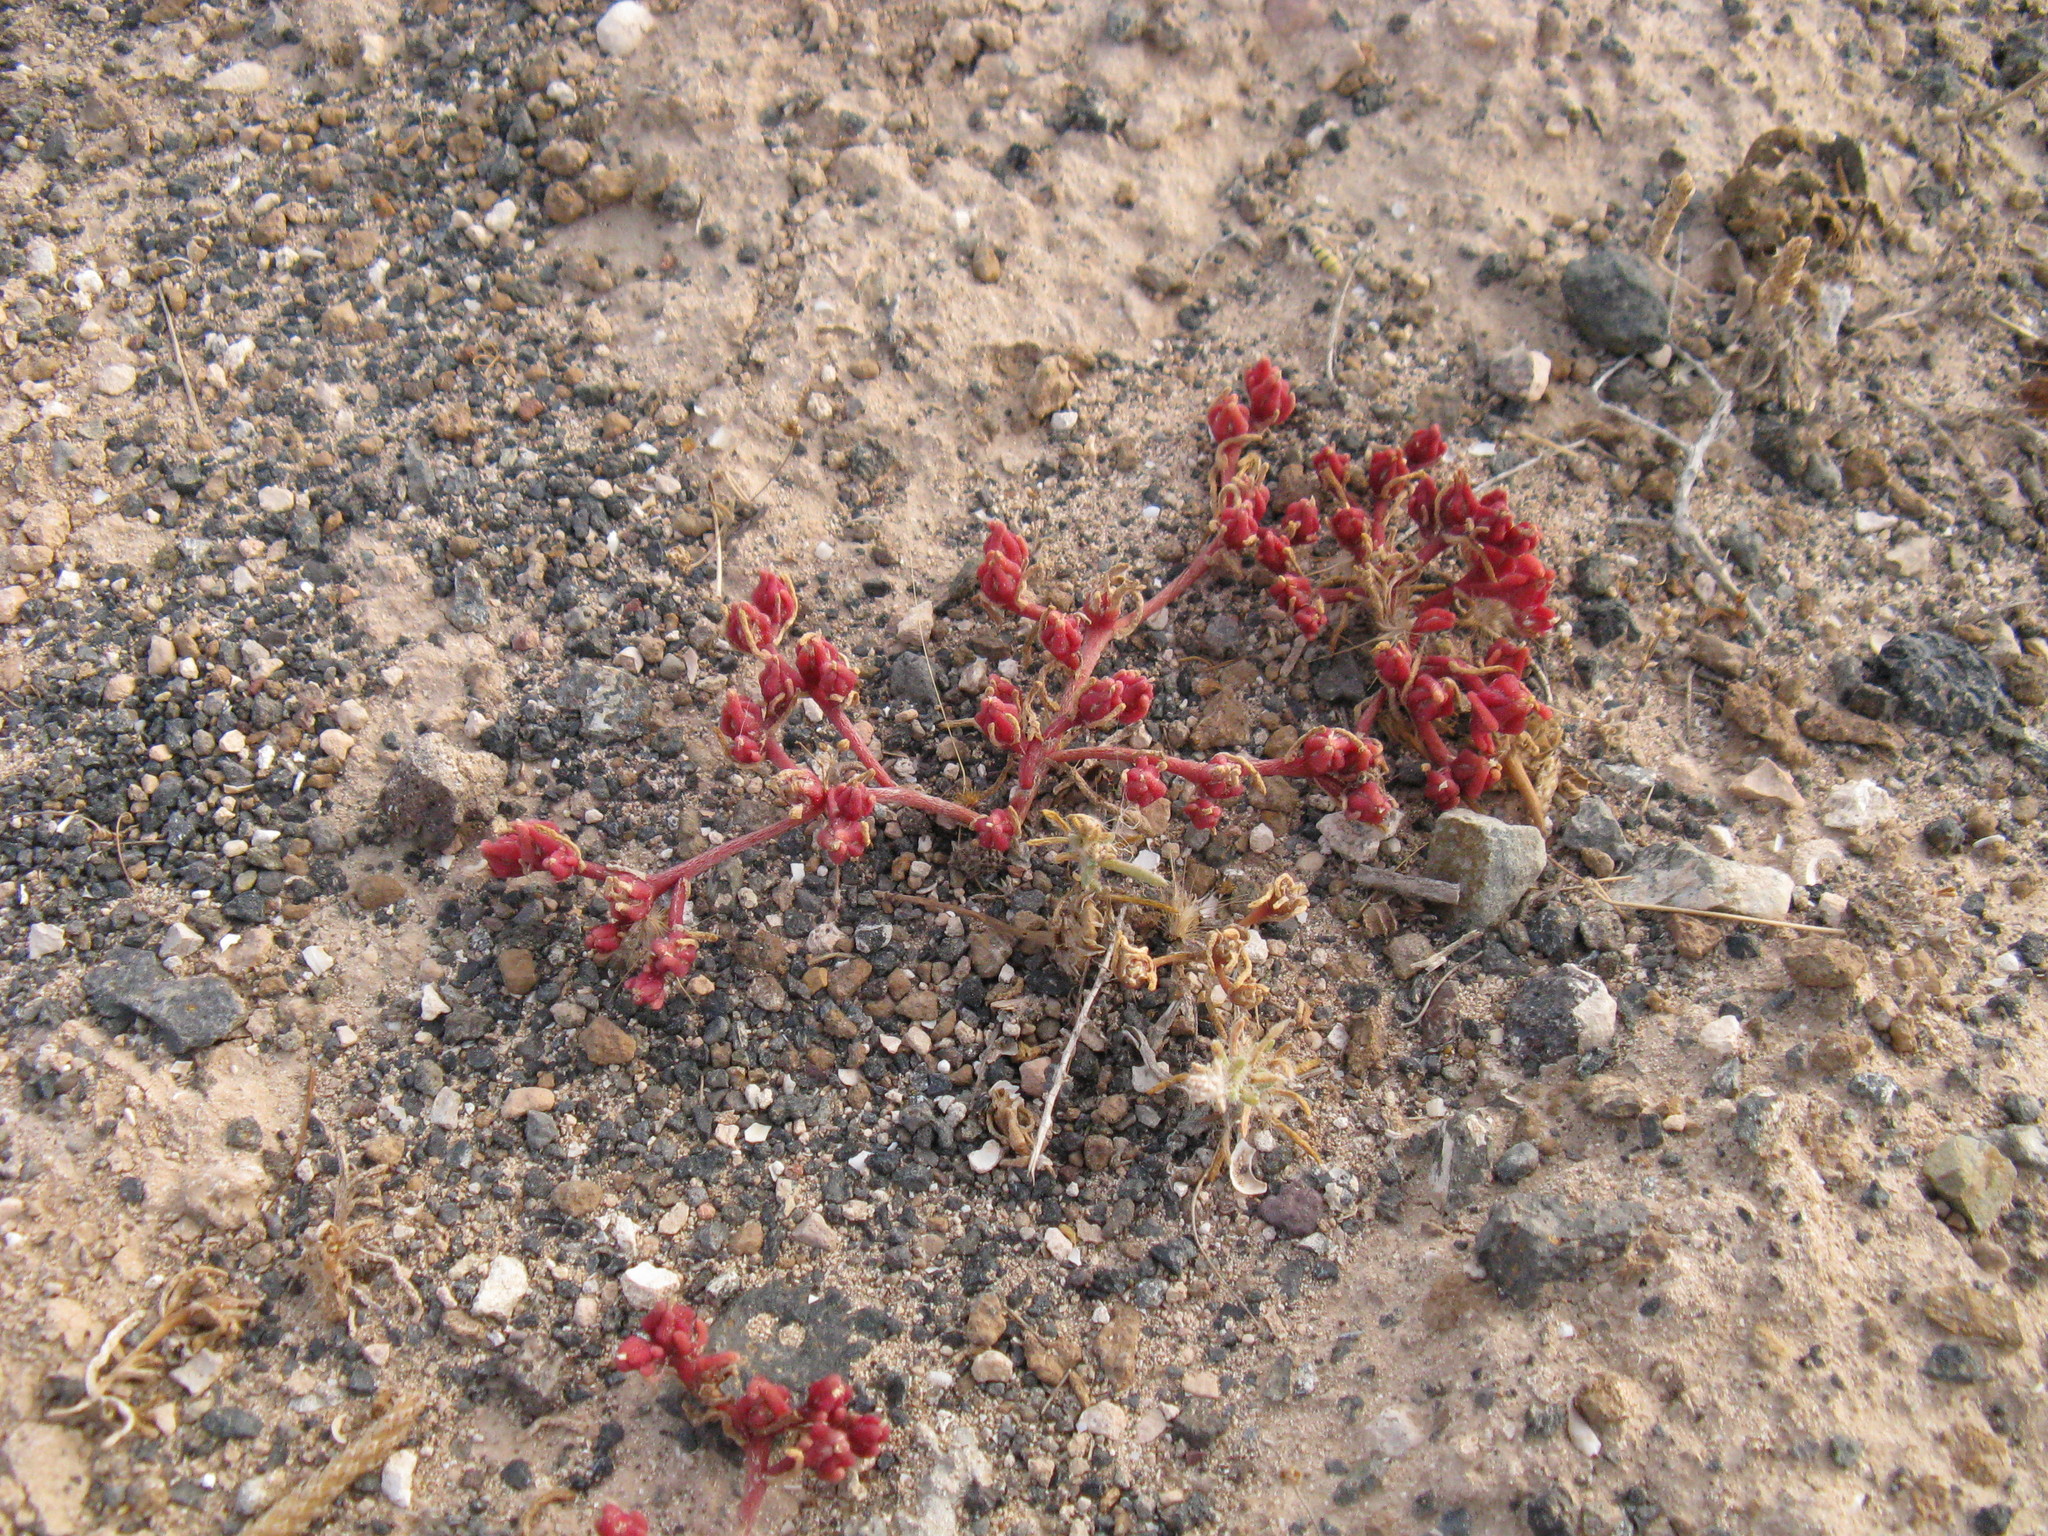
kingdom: Plantae
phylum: Tracheophyta
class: Magnoliopsida
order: Caryophyllales
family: Aizoaceae
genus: Mesembryanthemum
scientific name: Mesembryanthemum nodiflorum
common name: Slenderleaf iceplant
